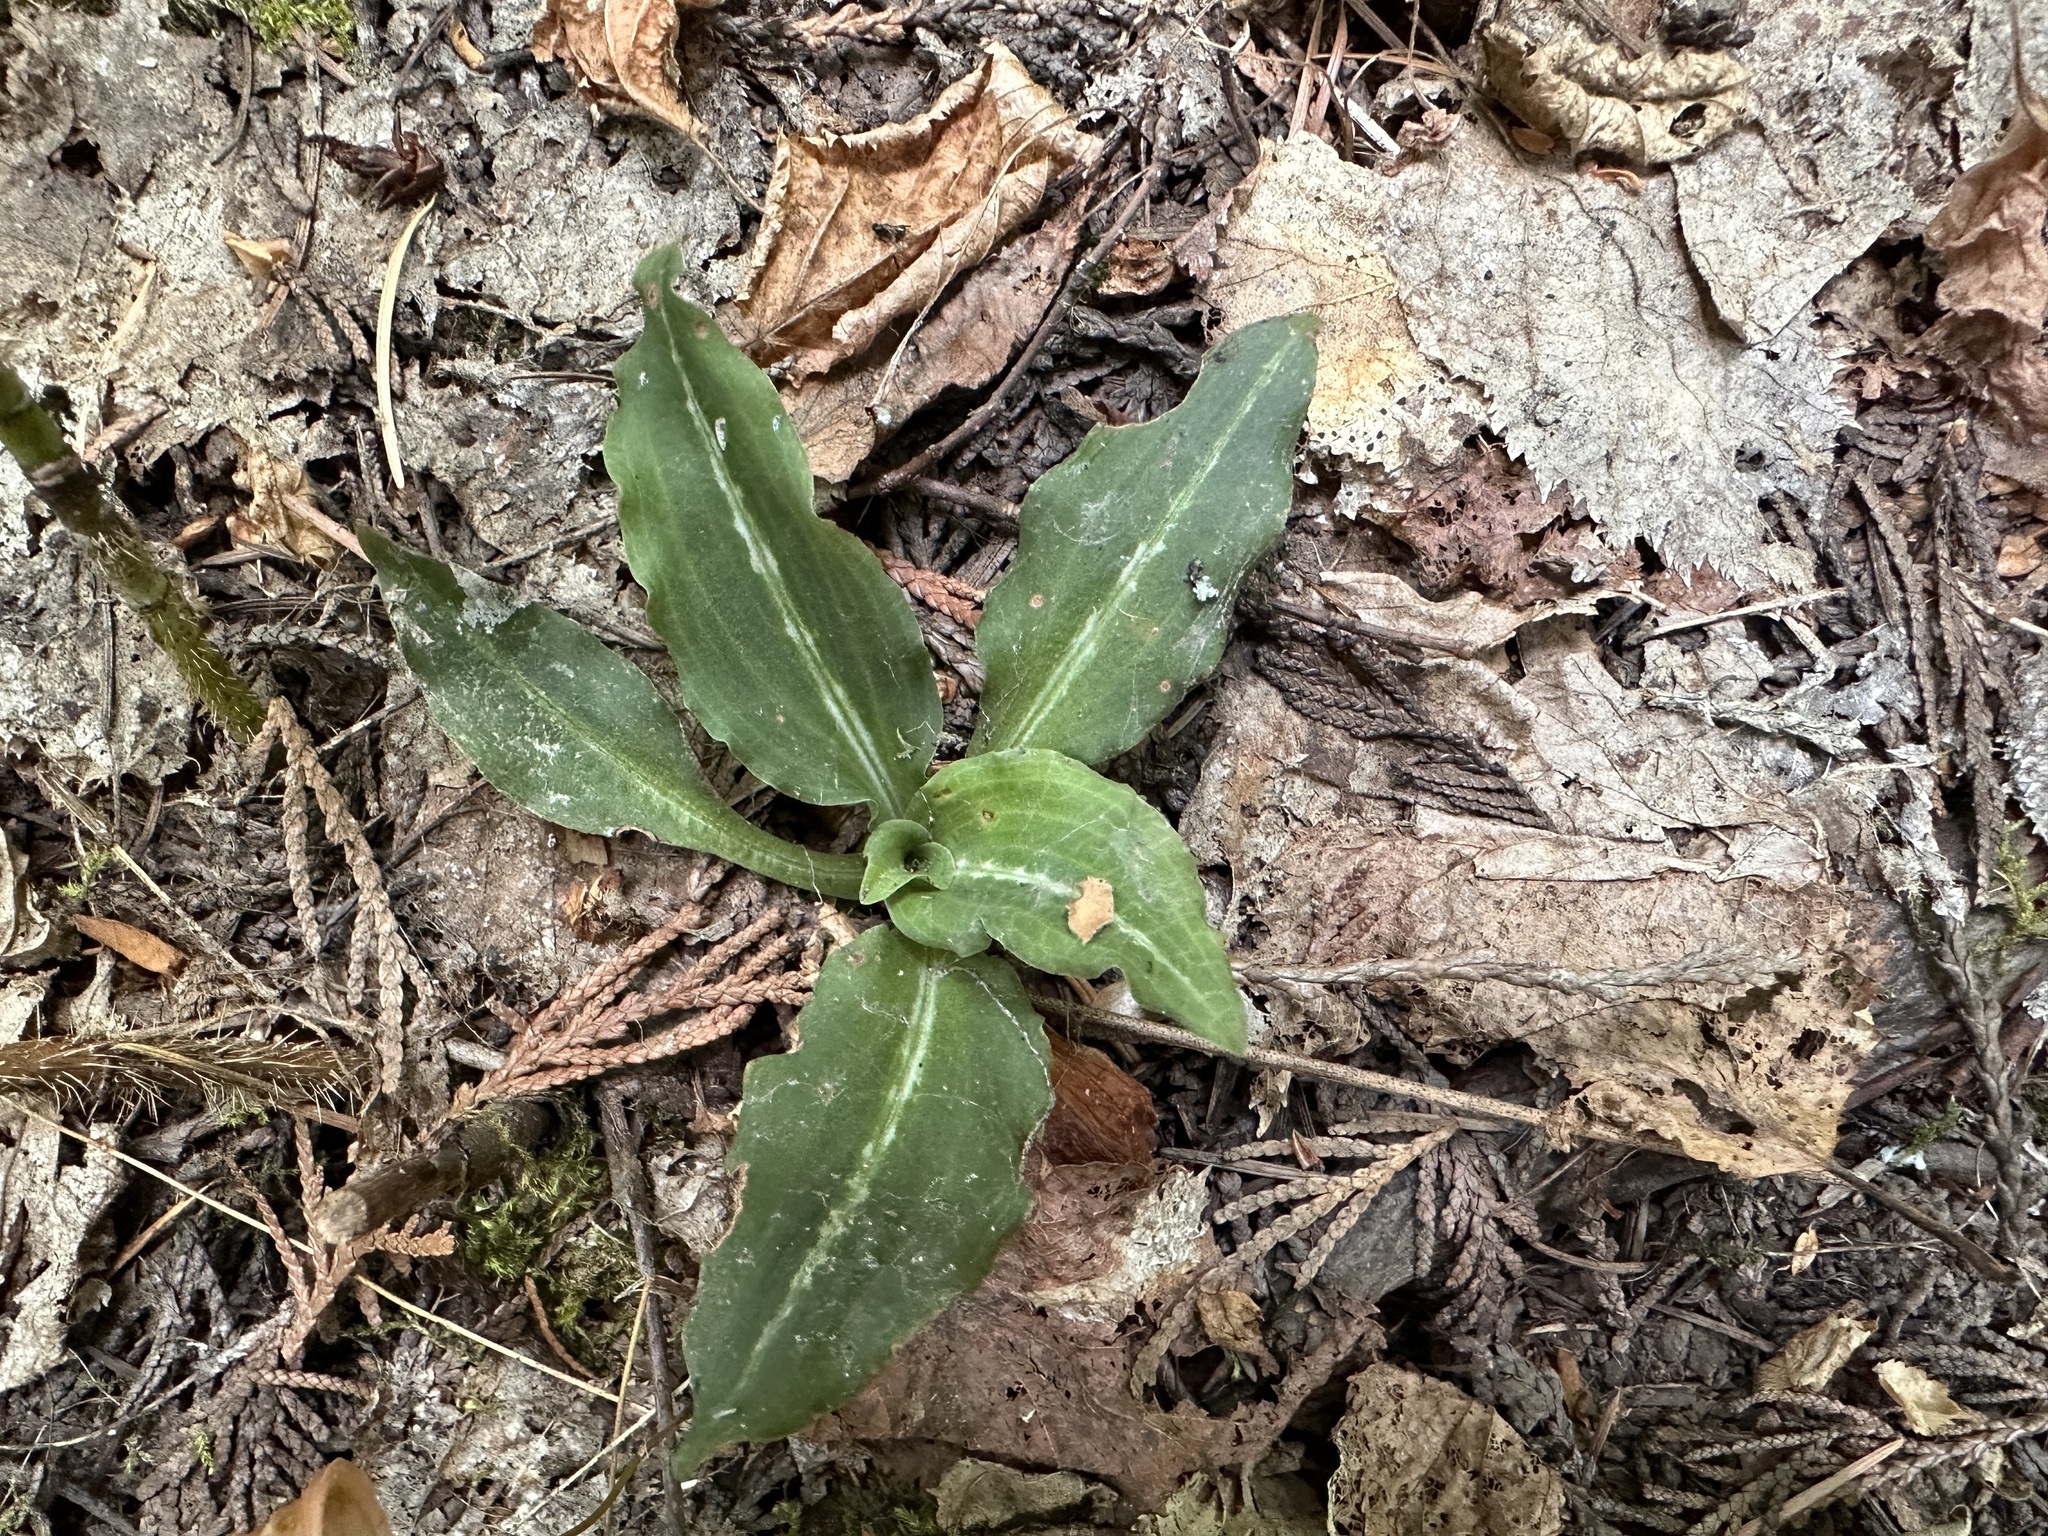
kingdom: Plantae
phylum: Tracheophyta
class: Liliopsida
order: Asparagales
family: Orchidaceae
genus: Goodyera
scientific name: Goodyera oblongifolia
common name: Giant rattlesnake-plantain
